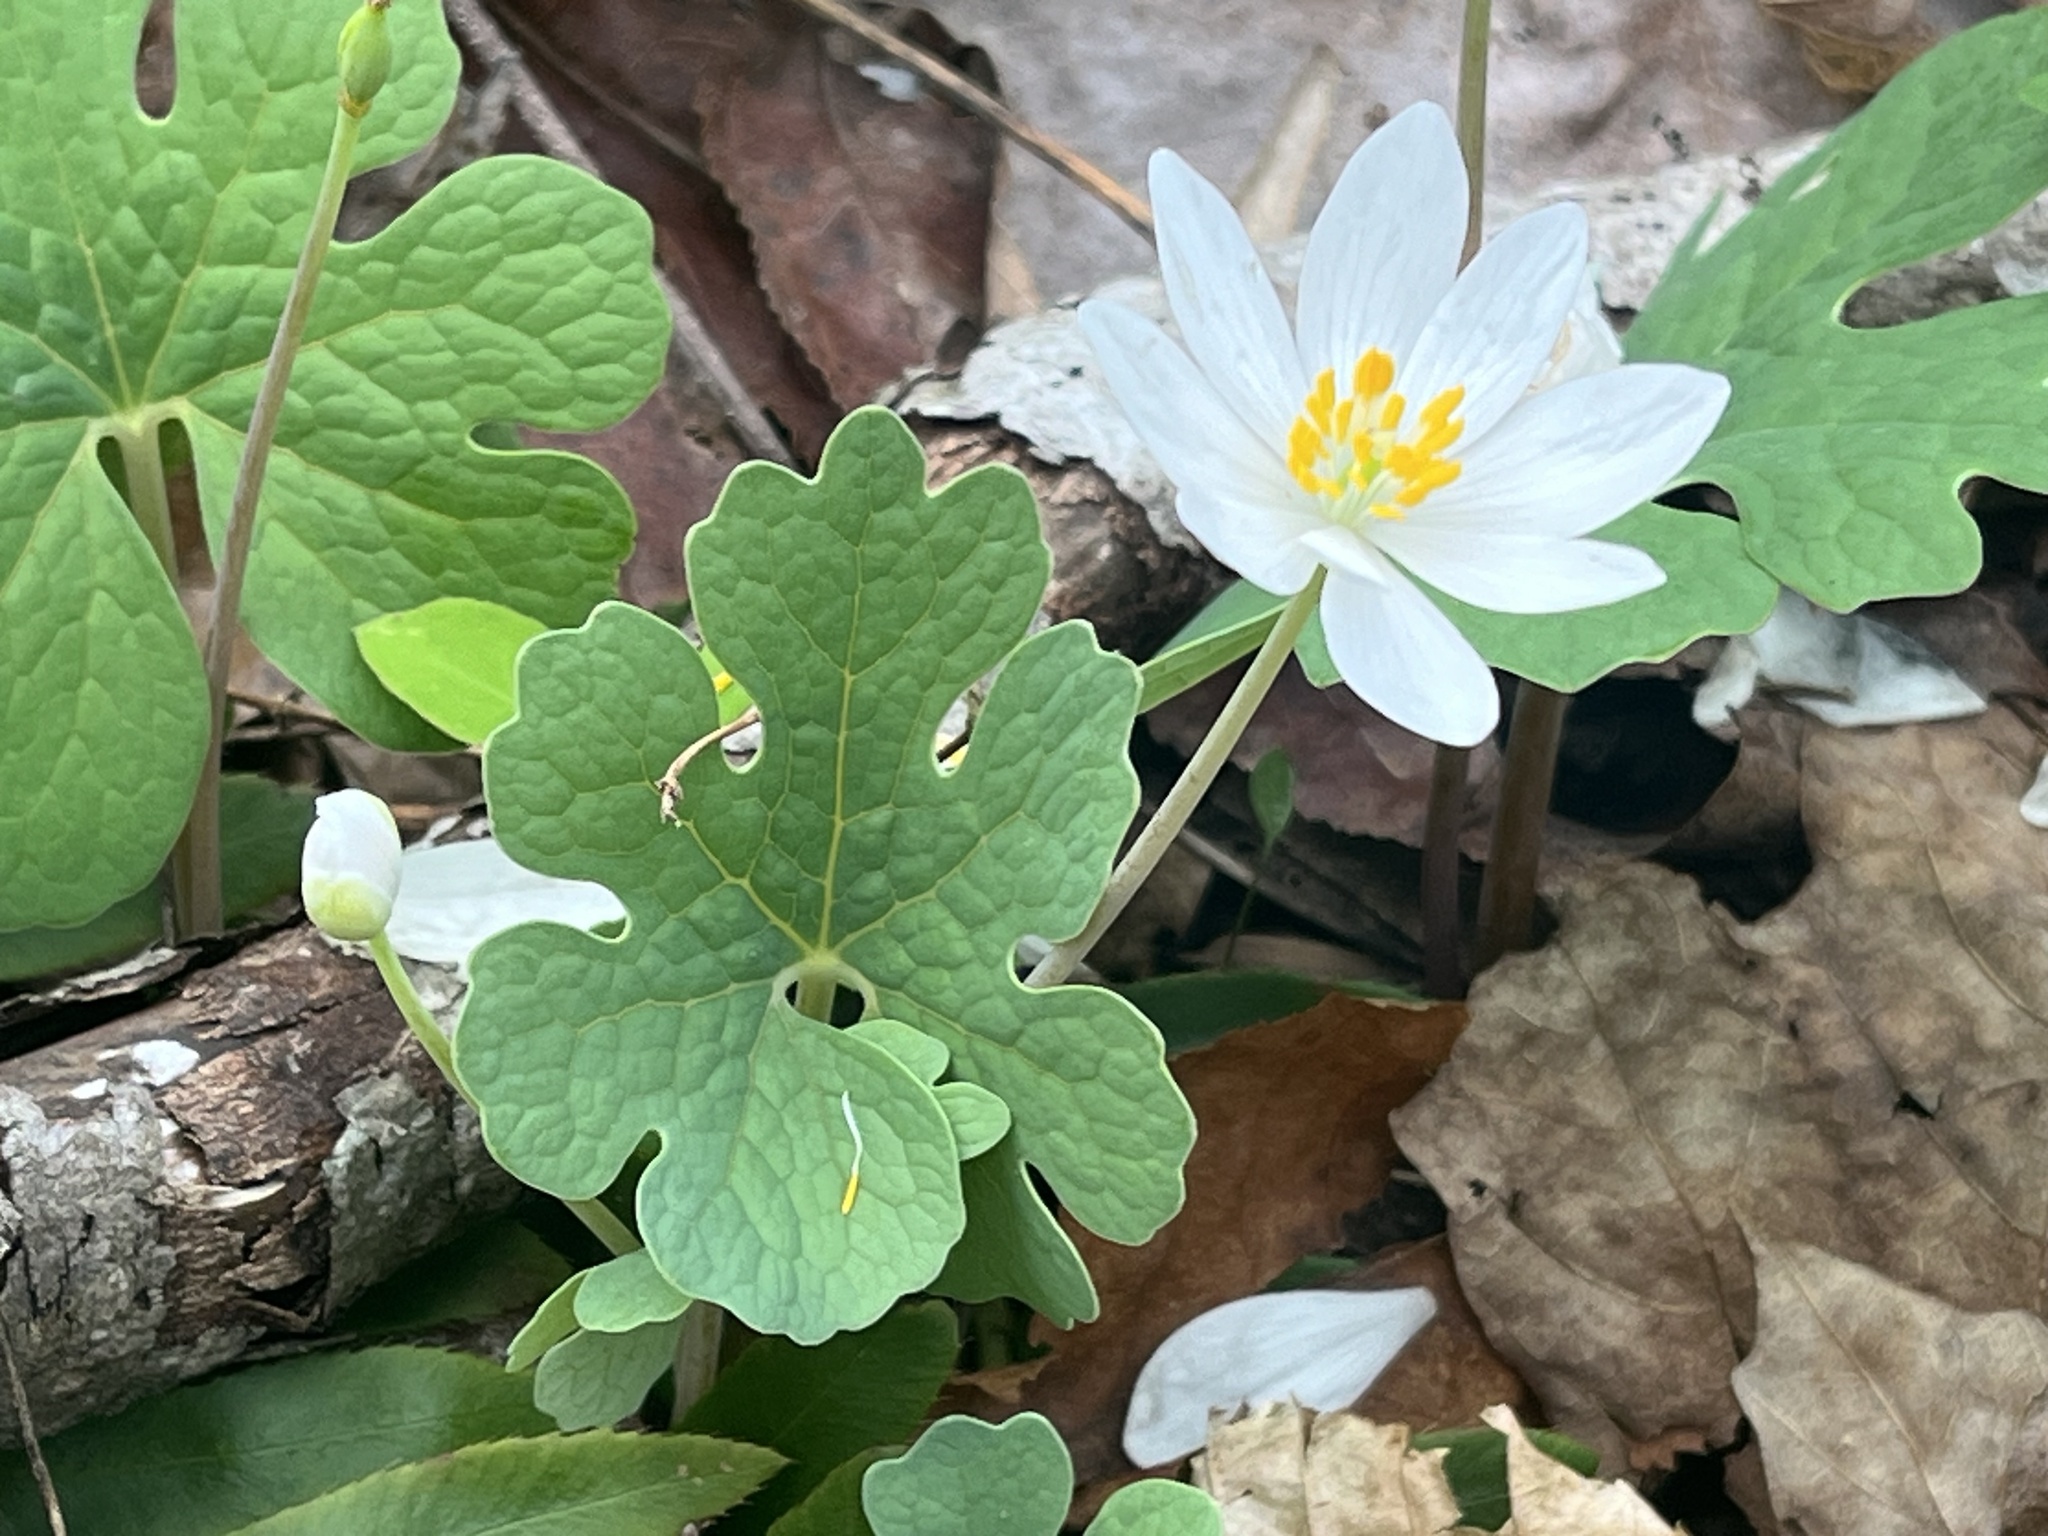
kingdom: Plantae
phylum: Tracheophyta
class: Magnoliopsida
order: Ranunculales
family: Papaveraceae
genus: Sanguinaria
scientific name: Sanguinaria canadensis
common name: Bloodroot
